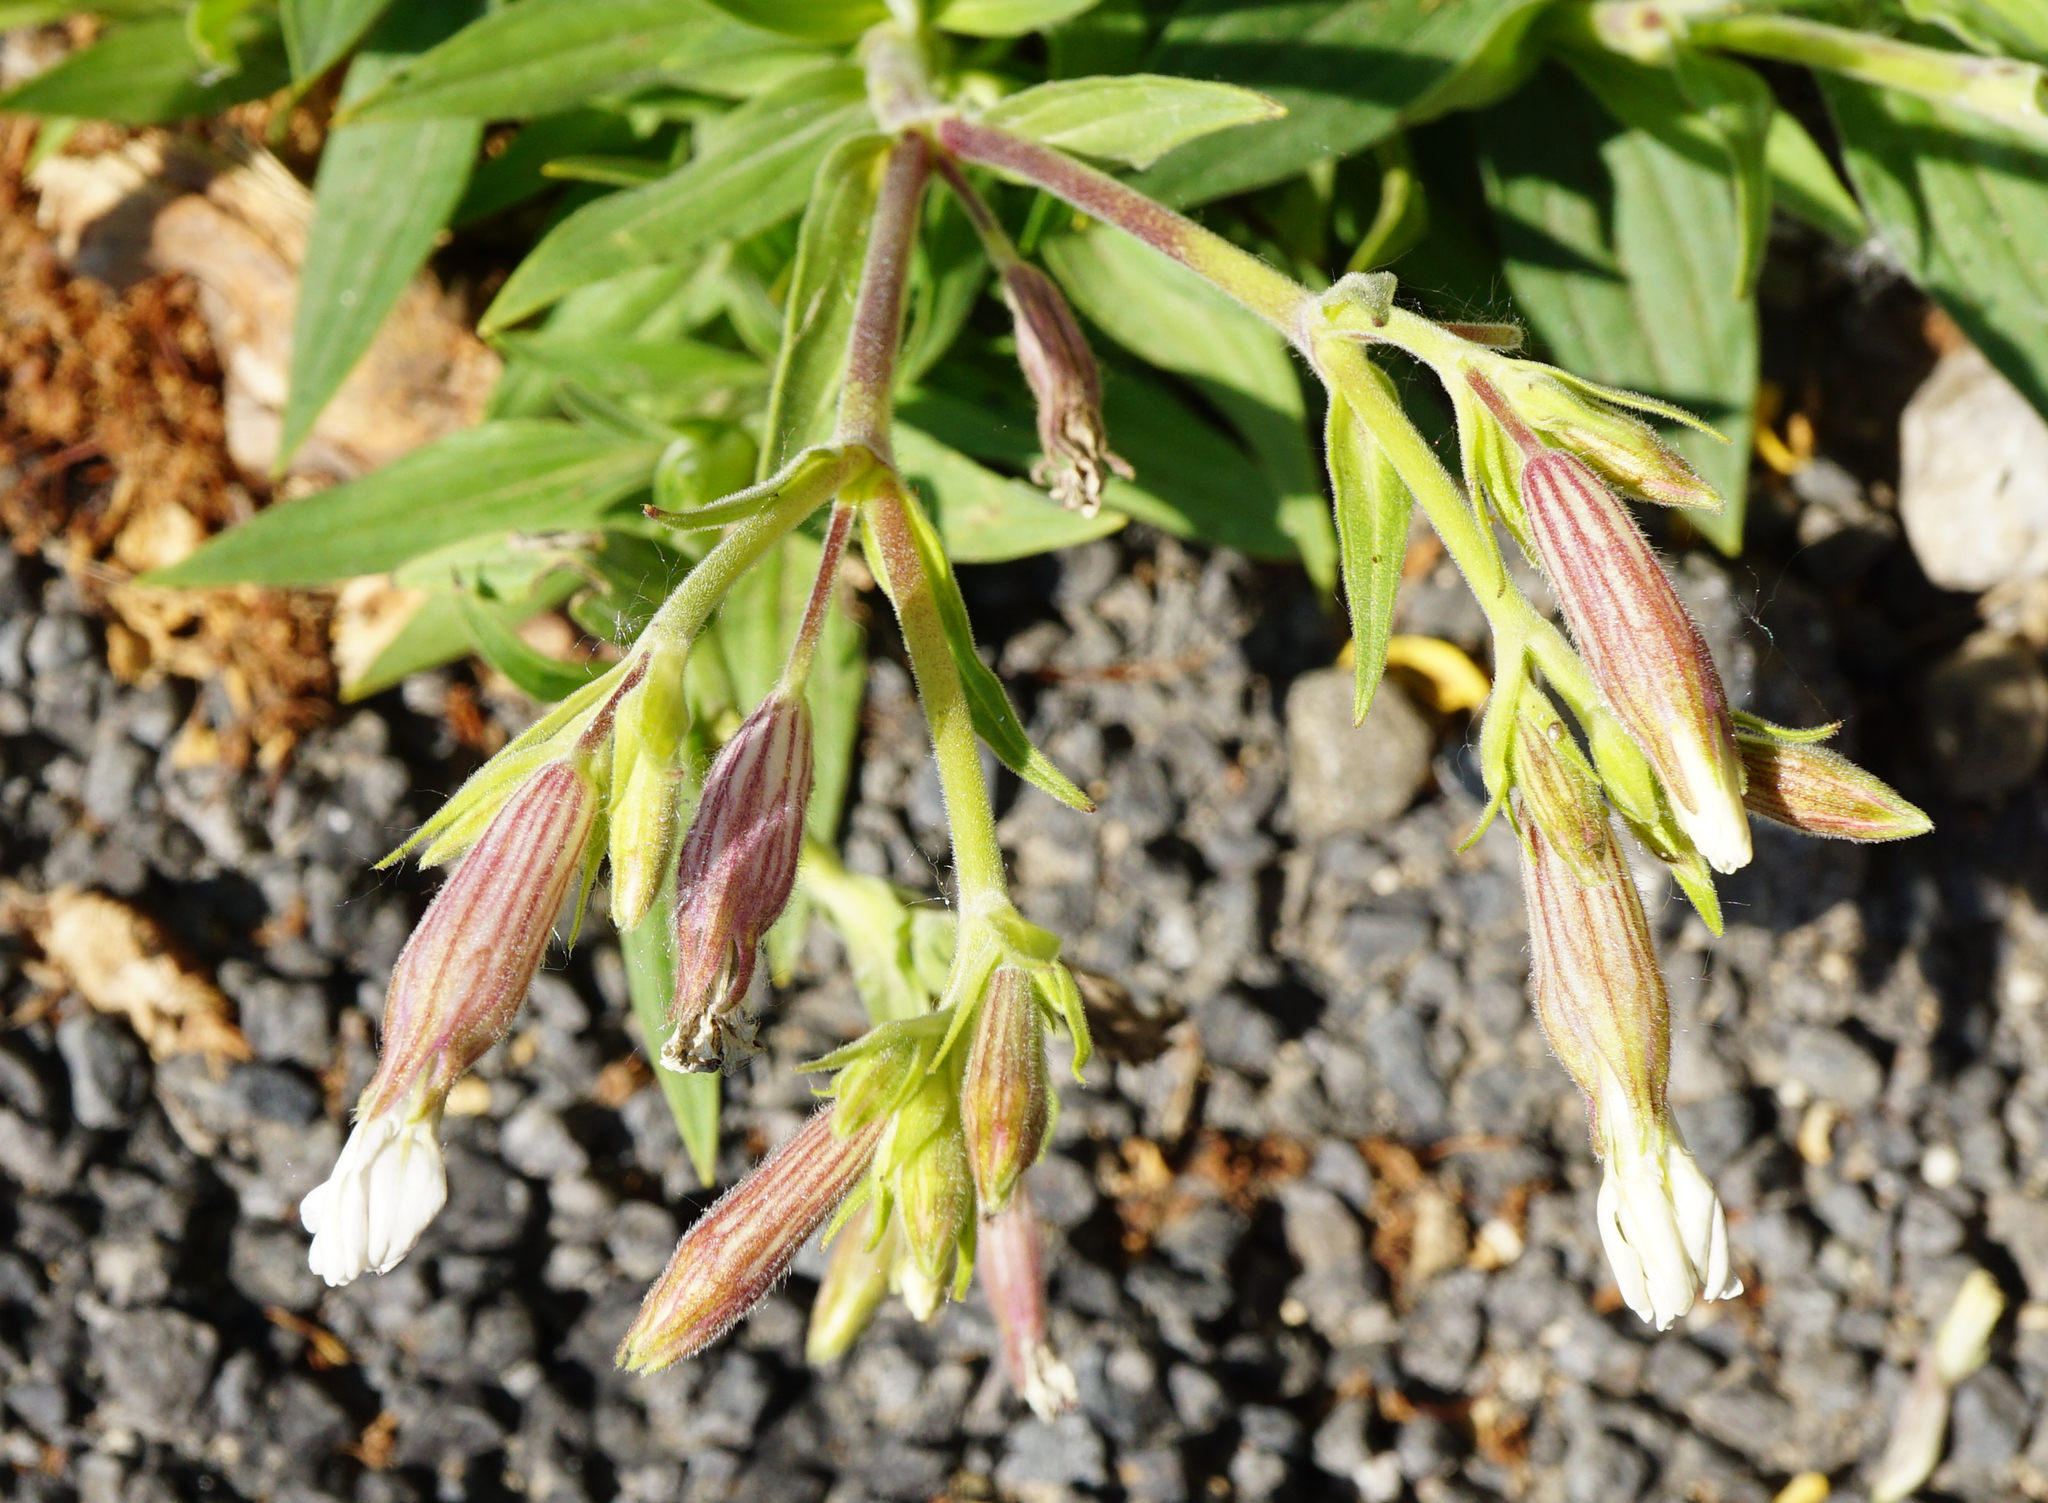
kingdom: Plantae
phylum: Tracheophyta
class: Magnoliopsida
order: Caryophyllales
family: Caryophyllaceae
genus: Silene
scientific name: Silene latifolia
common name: White campion
